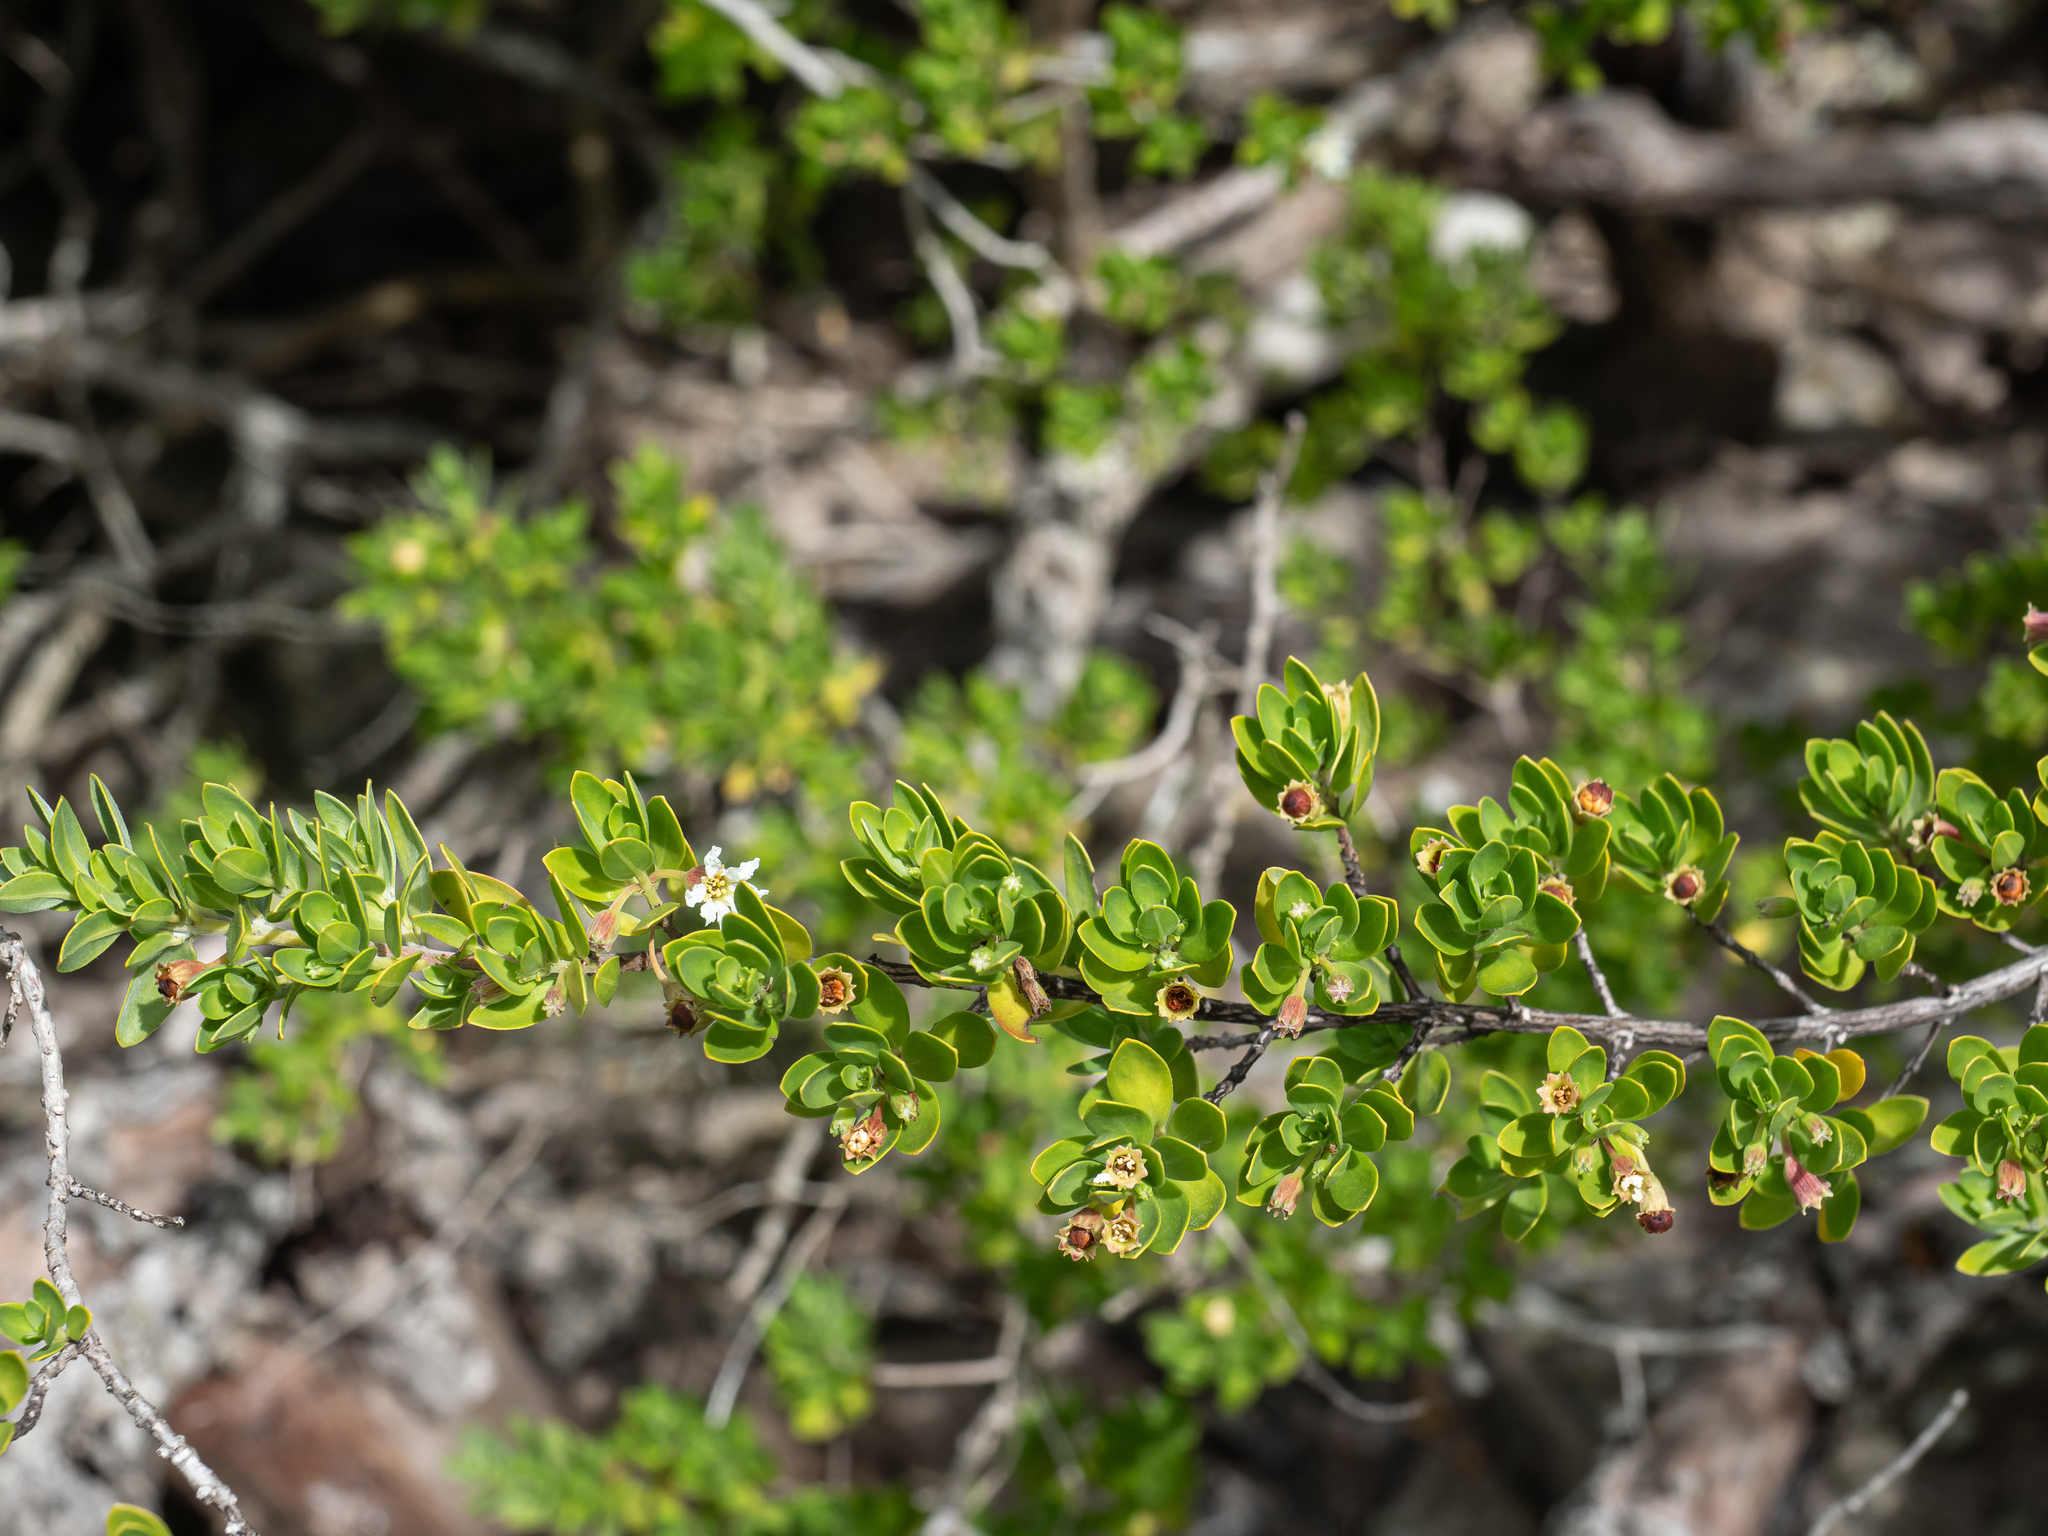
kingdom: Plantae
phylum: Tracheophyta
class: Magnoliopsida
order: Myrtales
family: Lythraceae
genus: Pemphis
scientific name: Pemphis acidula
